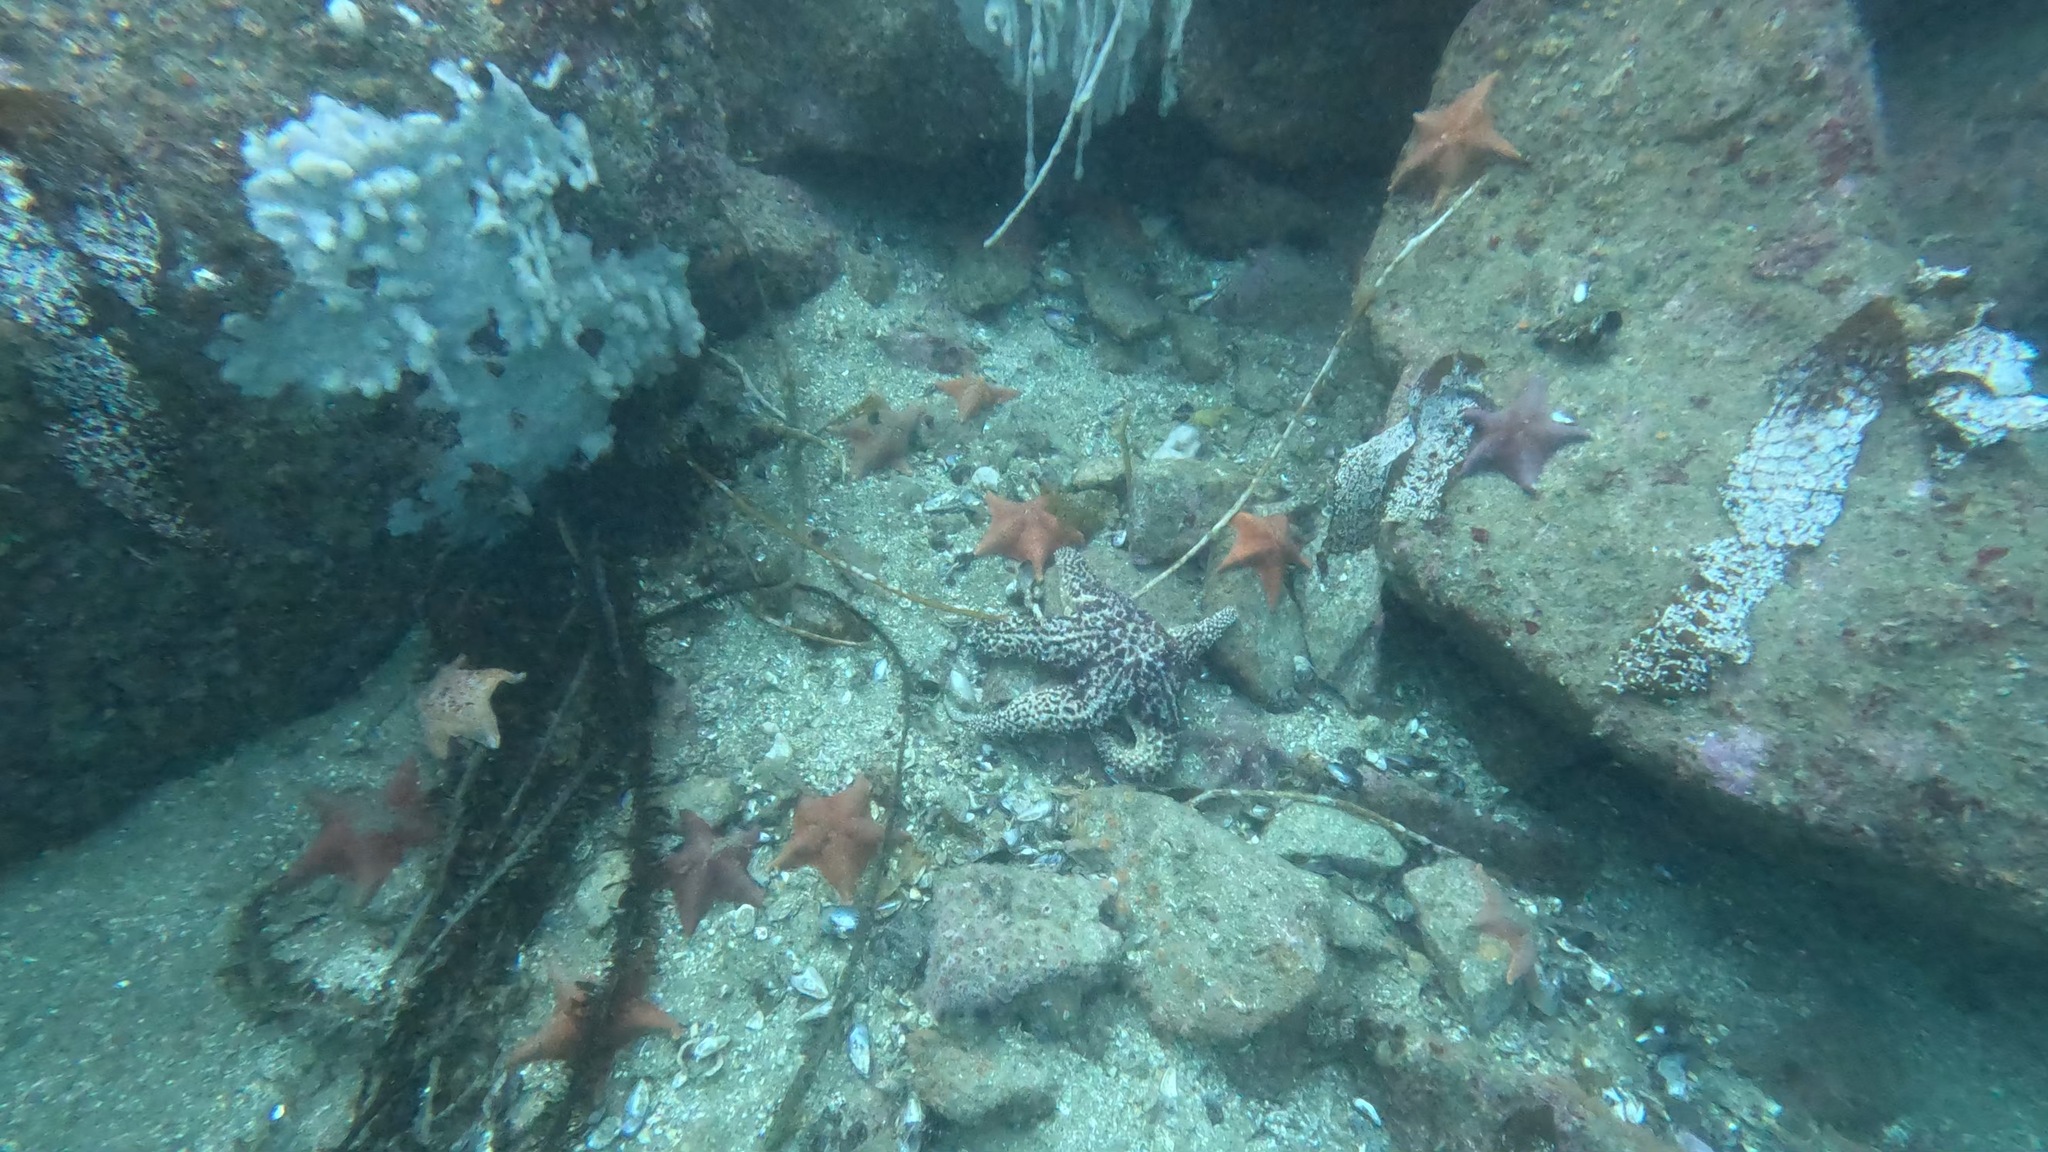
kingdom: Animalia
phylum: Echinodermata
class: Asteroidea
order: Valvatida
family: Asterinidae
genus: Patiria
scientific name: Patiria miniata
